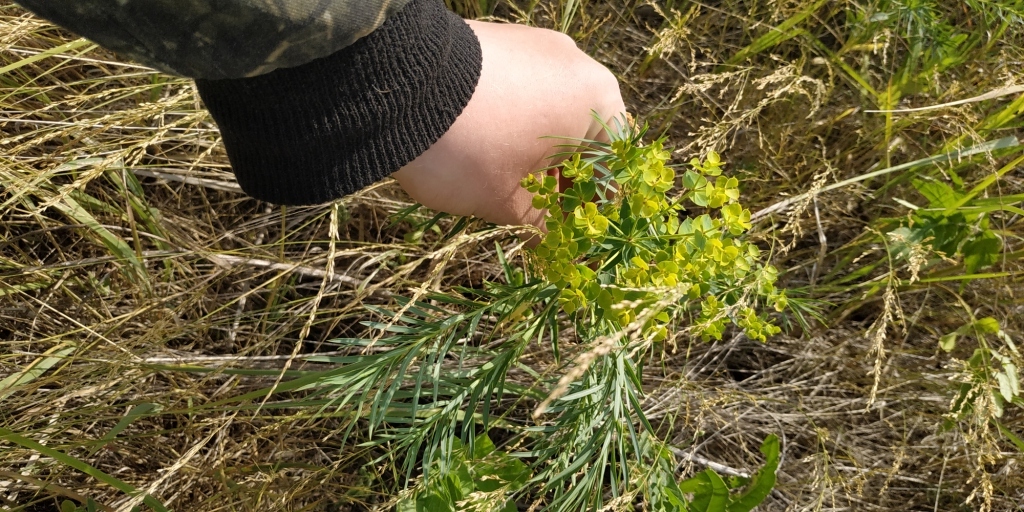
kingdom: Plantae
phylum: Tracheophyta
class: Magnoliopsida
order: Malpighiales
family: Euphorbiaceae
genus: Euphorbia
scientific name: Euphorbia virgata
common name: Leafy spurge
